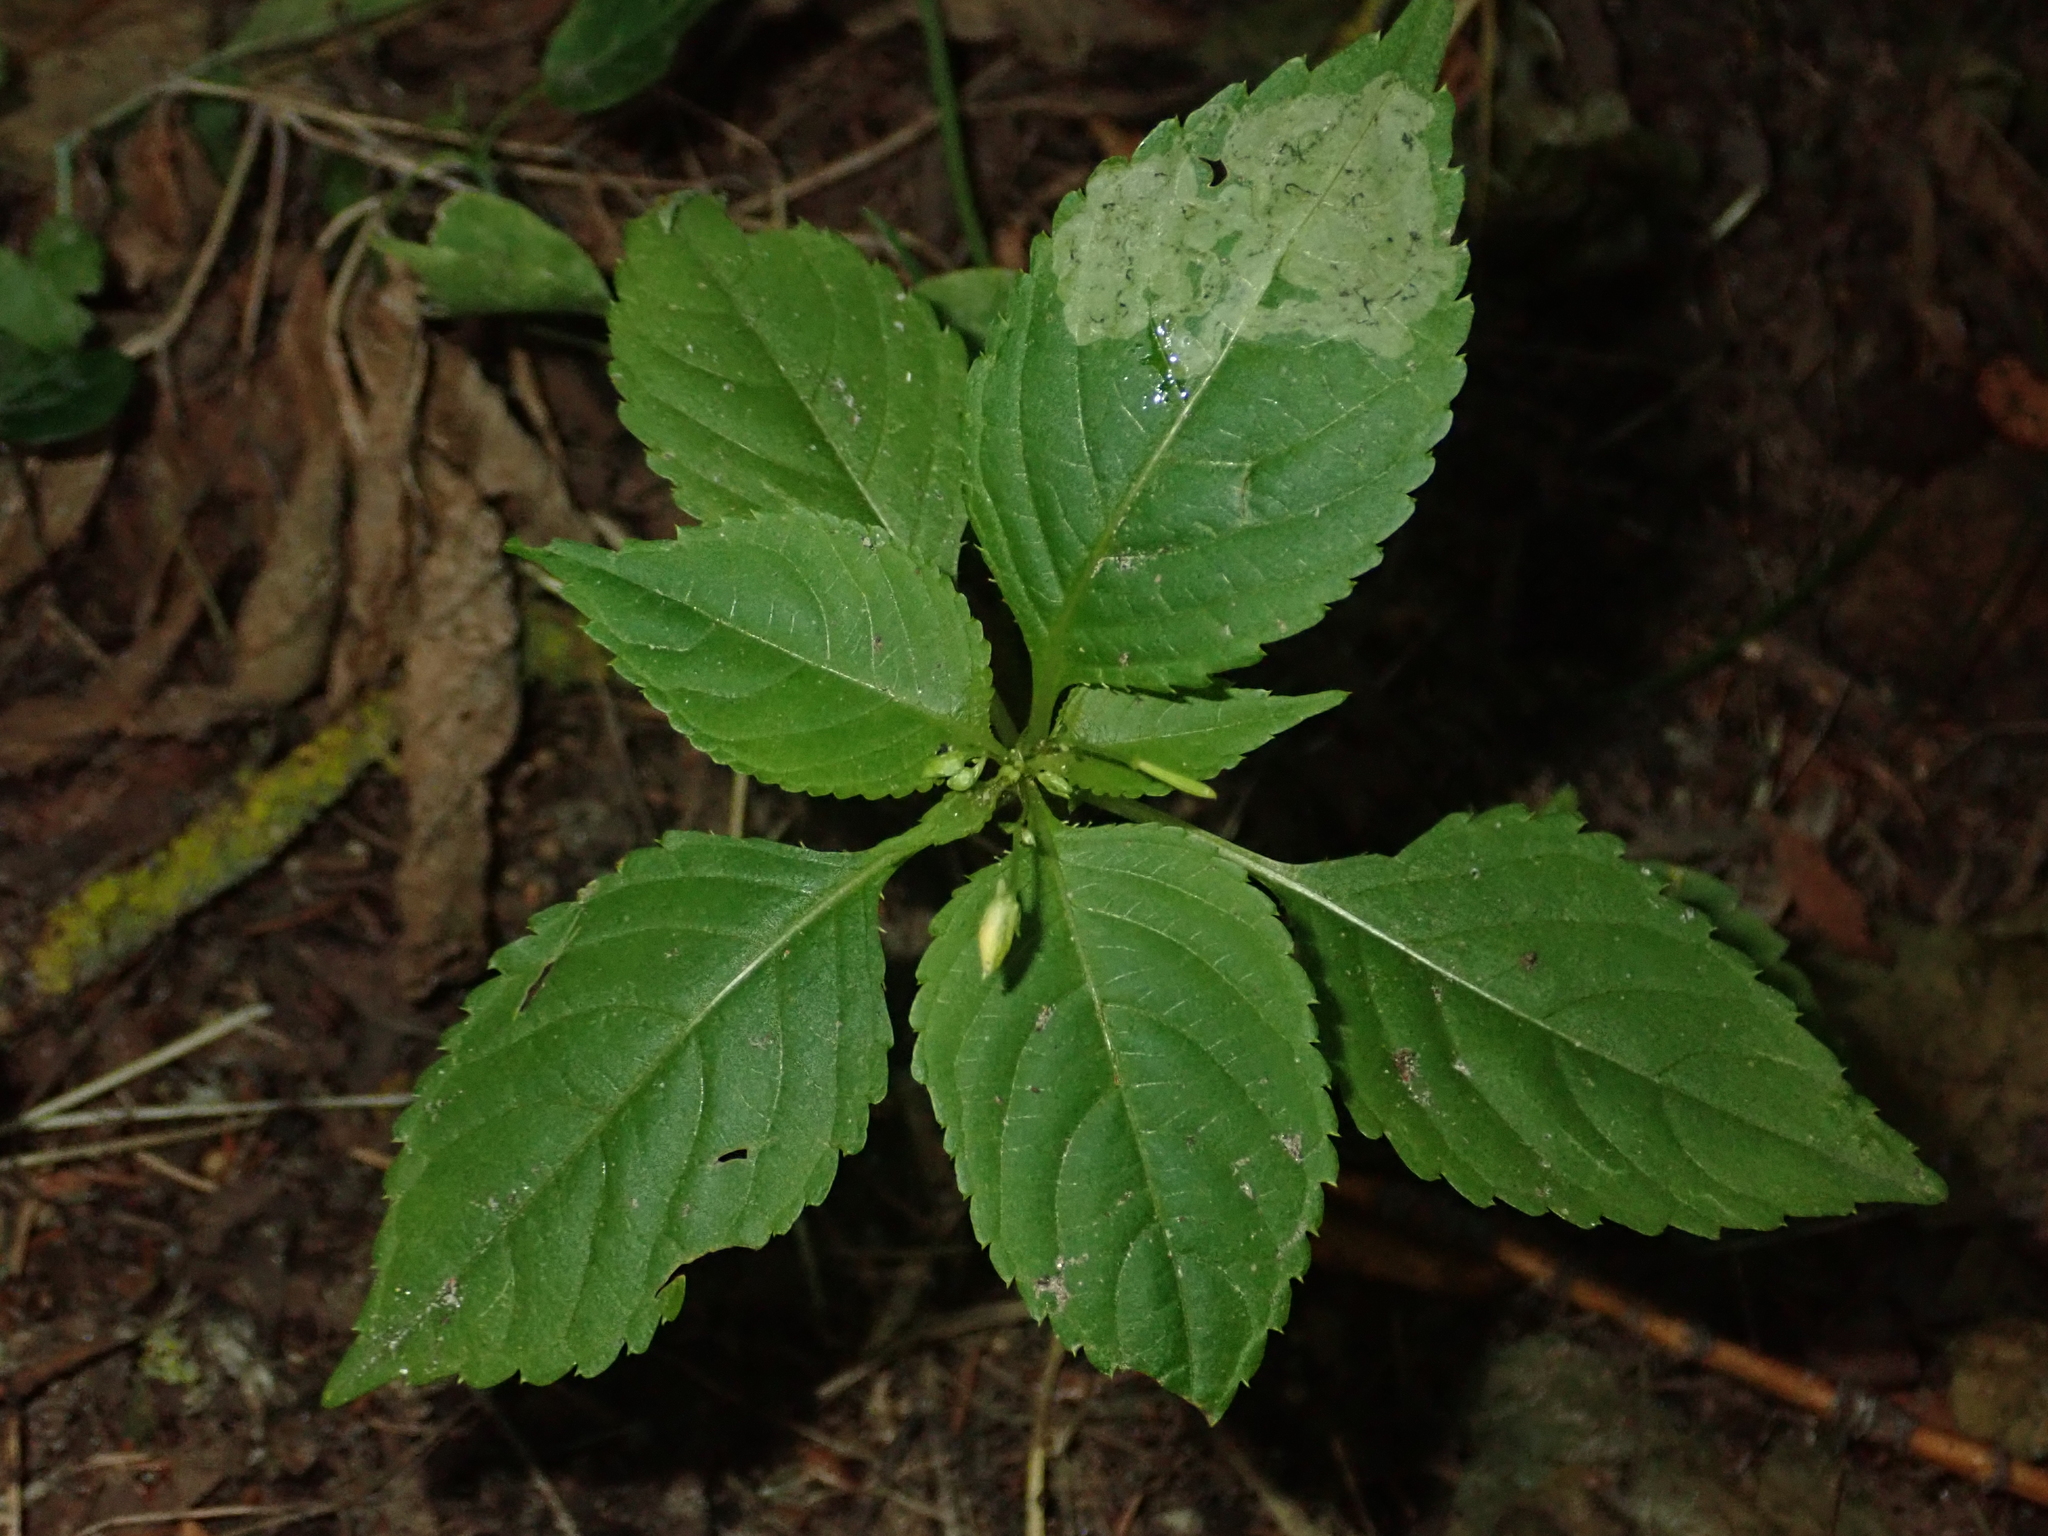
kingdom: Plantae
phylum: Tracheophyta
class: Magnoliopsida
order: Ericales
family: Balsaminaceae
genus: Impatiens
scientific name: Impatiens parviflora
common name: Small balsam
